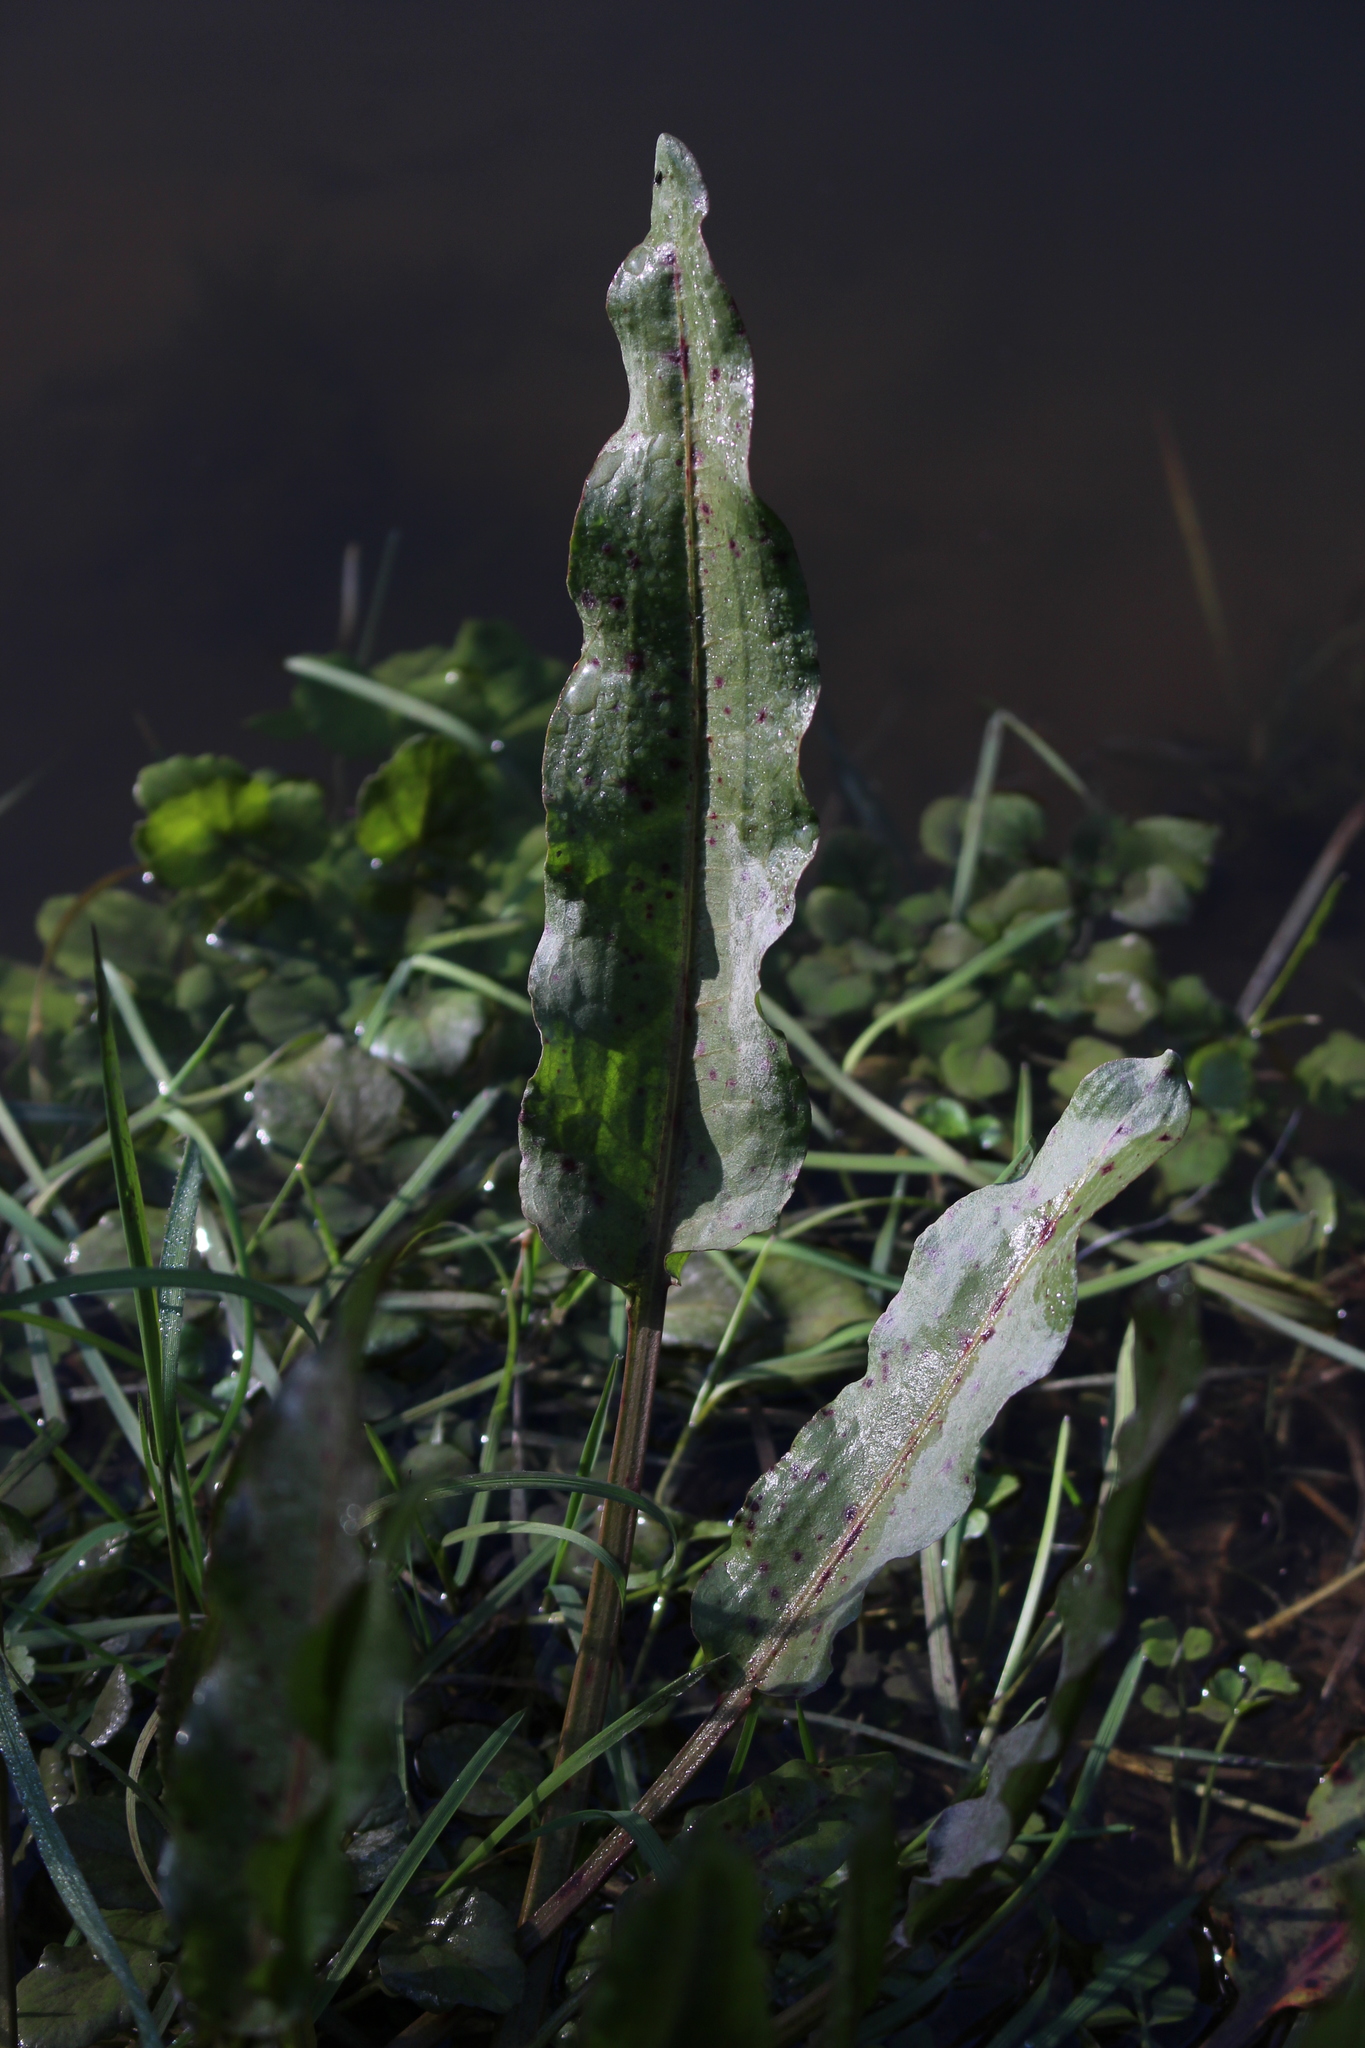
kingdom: Plantae
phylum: Tracheophyta
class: Magnoliopsida
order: Caryophyllales
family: Polygonaceae
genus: Rumex
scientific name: Rumex conglomeratus
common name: Clustered dock
